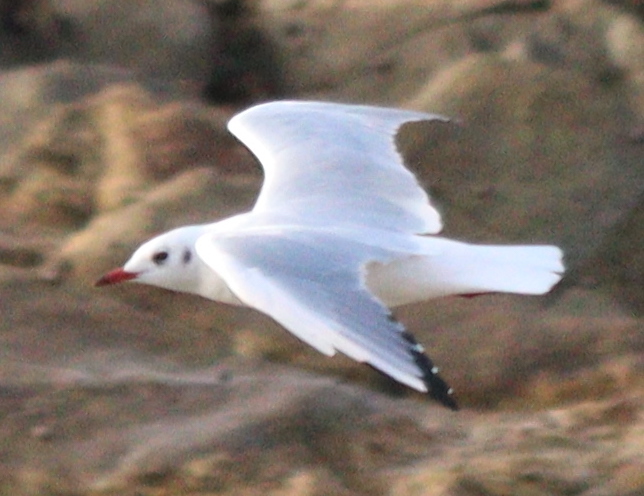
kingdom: Animalia
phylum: Chordata
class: Aves
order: Charadriiformes
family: Laridae
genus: Chroicocephalus
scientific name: Chroicocephalus ridibundus
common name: Black-headed gull
